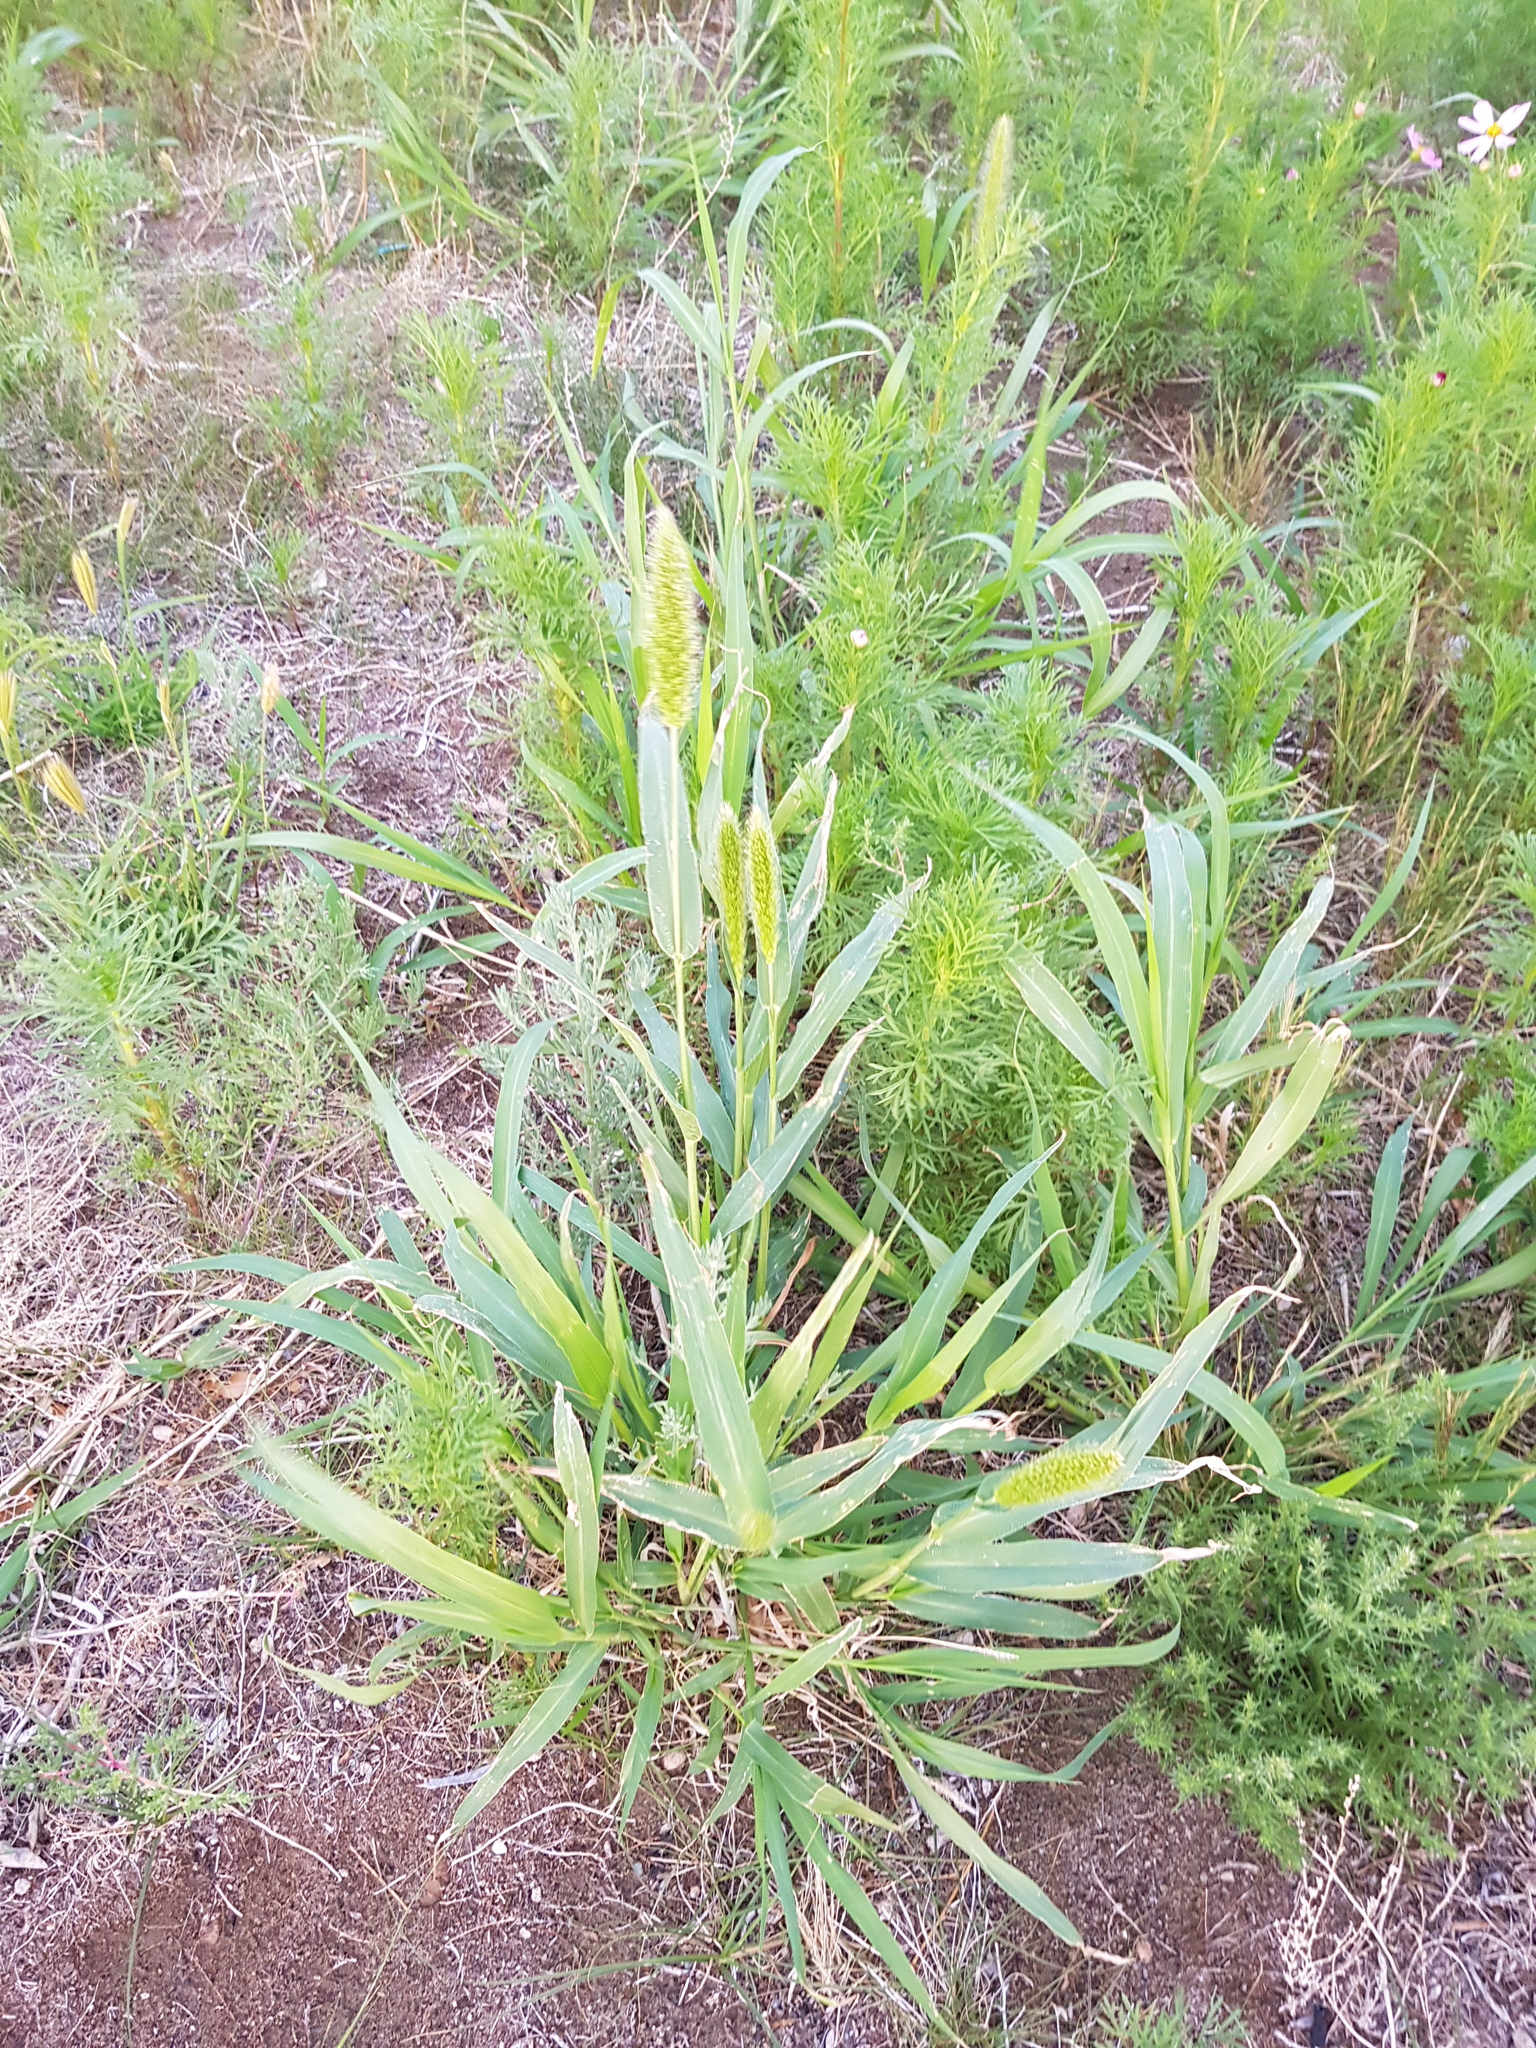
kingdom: Plantae
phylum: Tracheophyta
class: Liliopsida
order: Poales
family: Poaceae
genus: Setaria
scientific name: Setaria viridis
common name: Green bristlegrass
